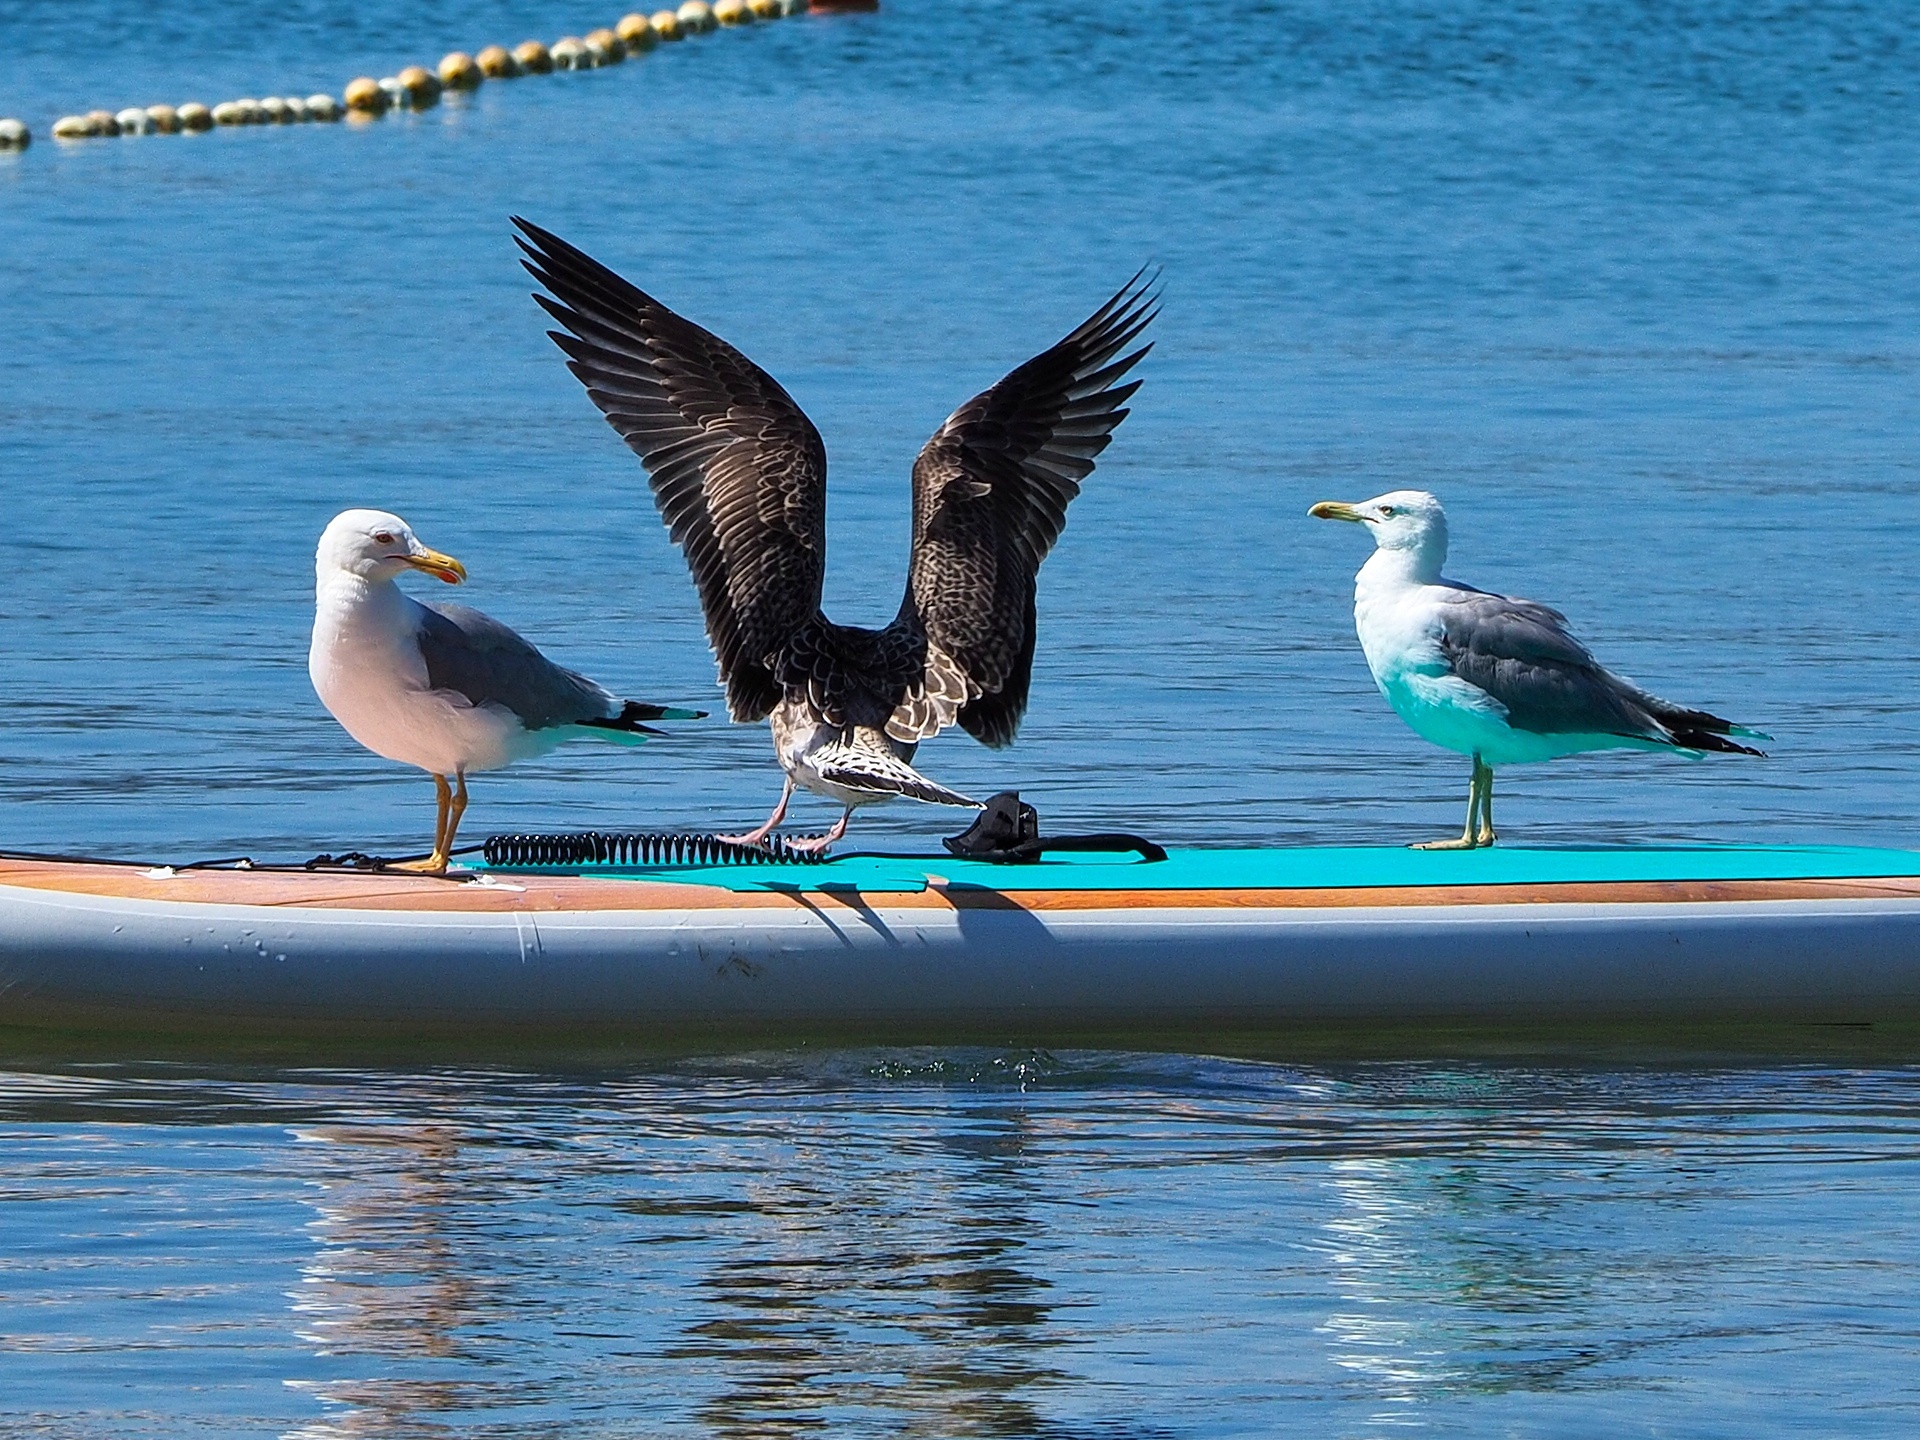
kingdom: Animalia
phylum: Chordata
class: Aves
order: Charadriiformes
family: Laridae
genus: Larus
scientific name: Larus michahellis
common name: Yellow-legged gull
